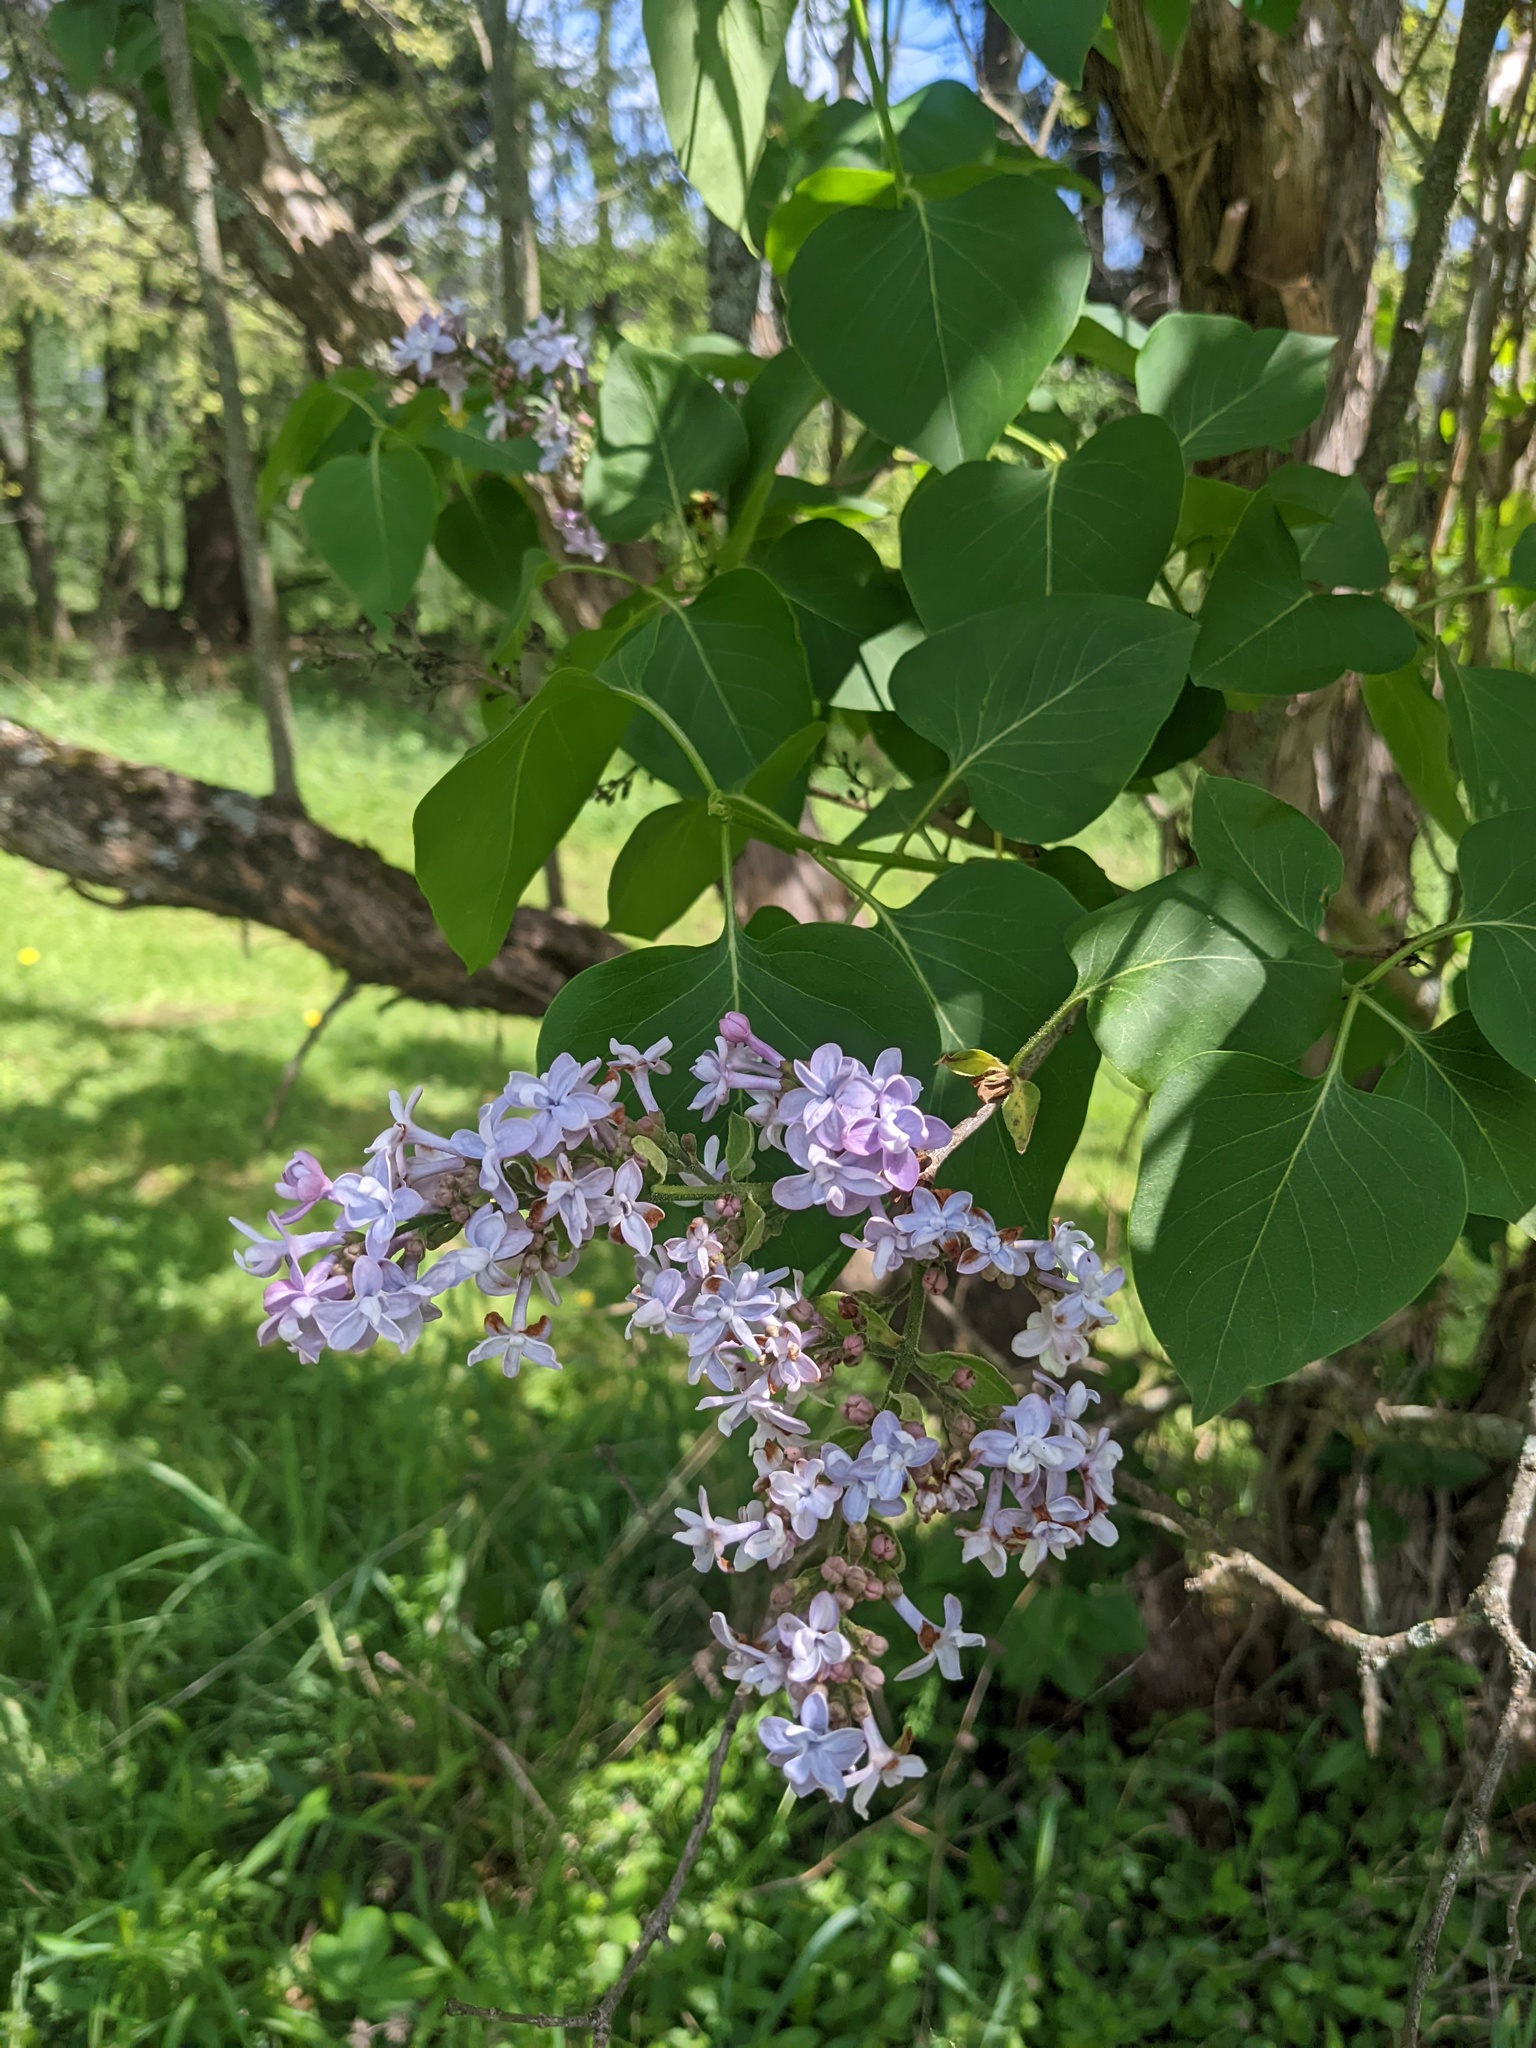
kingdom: Plantae
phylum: Tracheophyta
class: Magnoliopsida
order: Lamiales
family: Oleaceae
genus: Syringa
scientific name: Syringa vulgaris
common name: Common lilac
